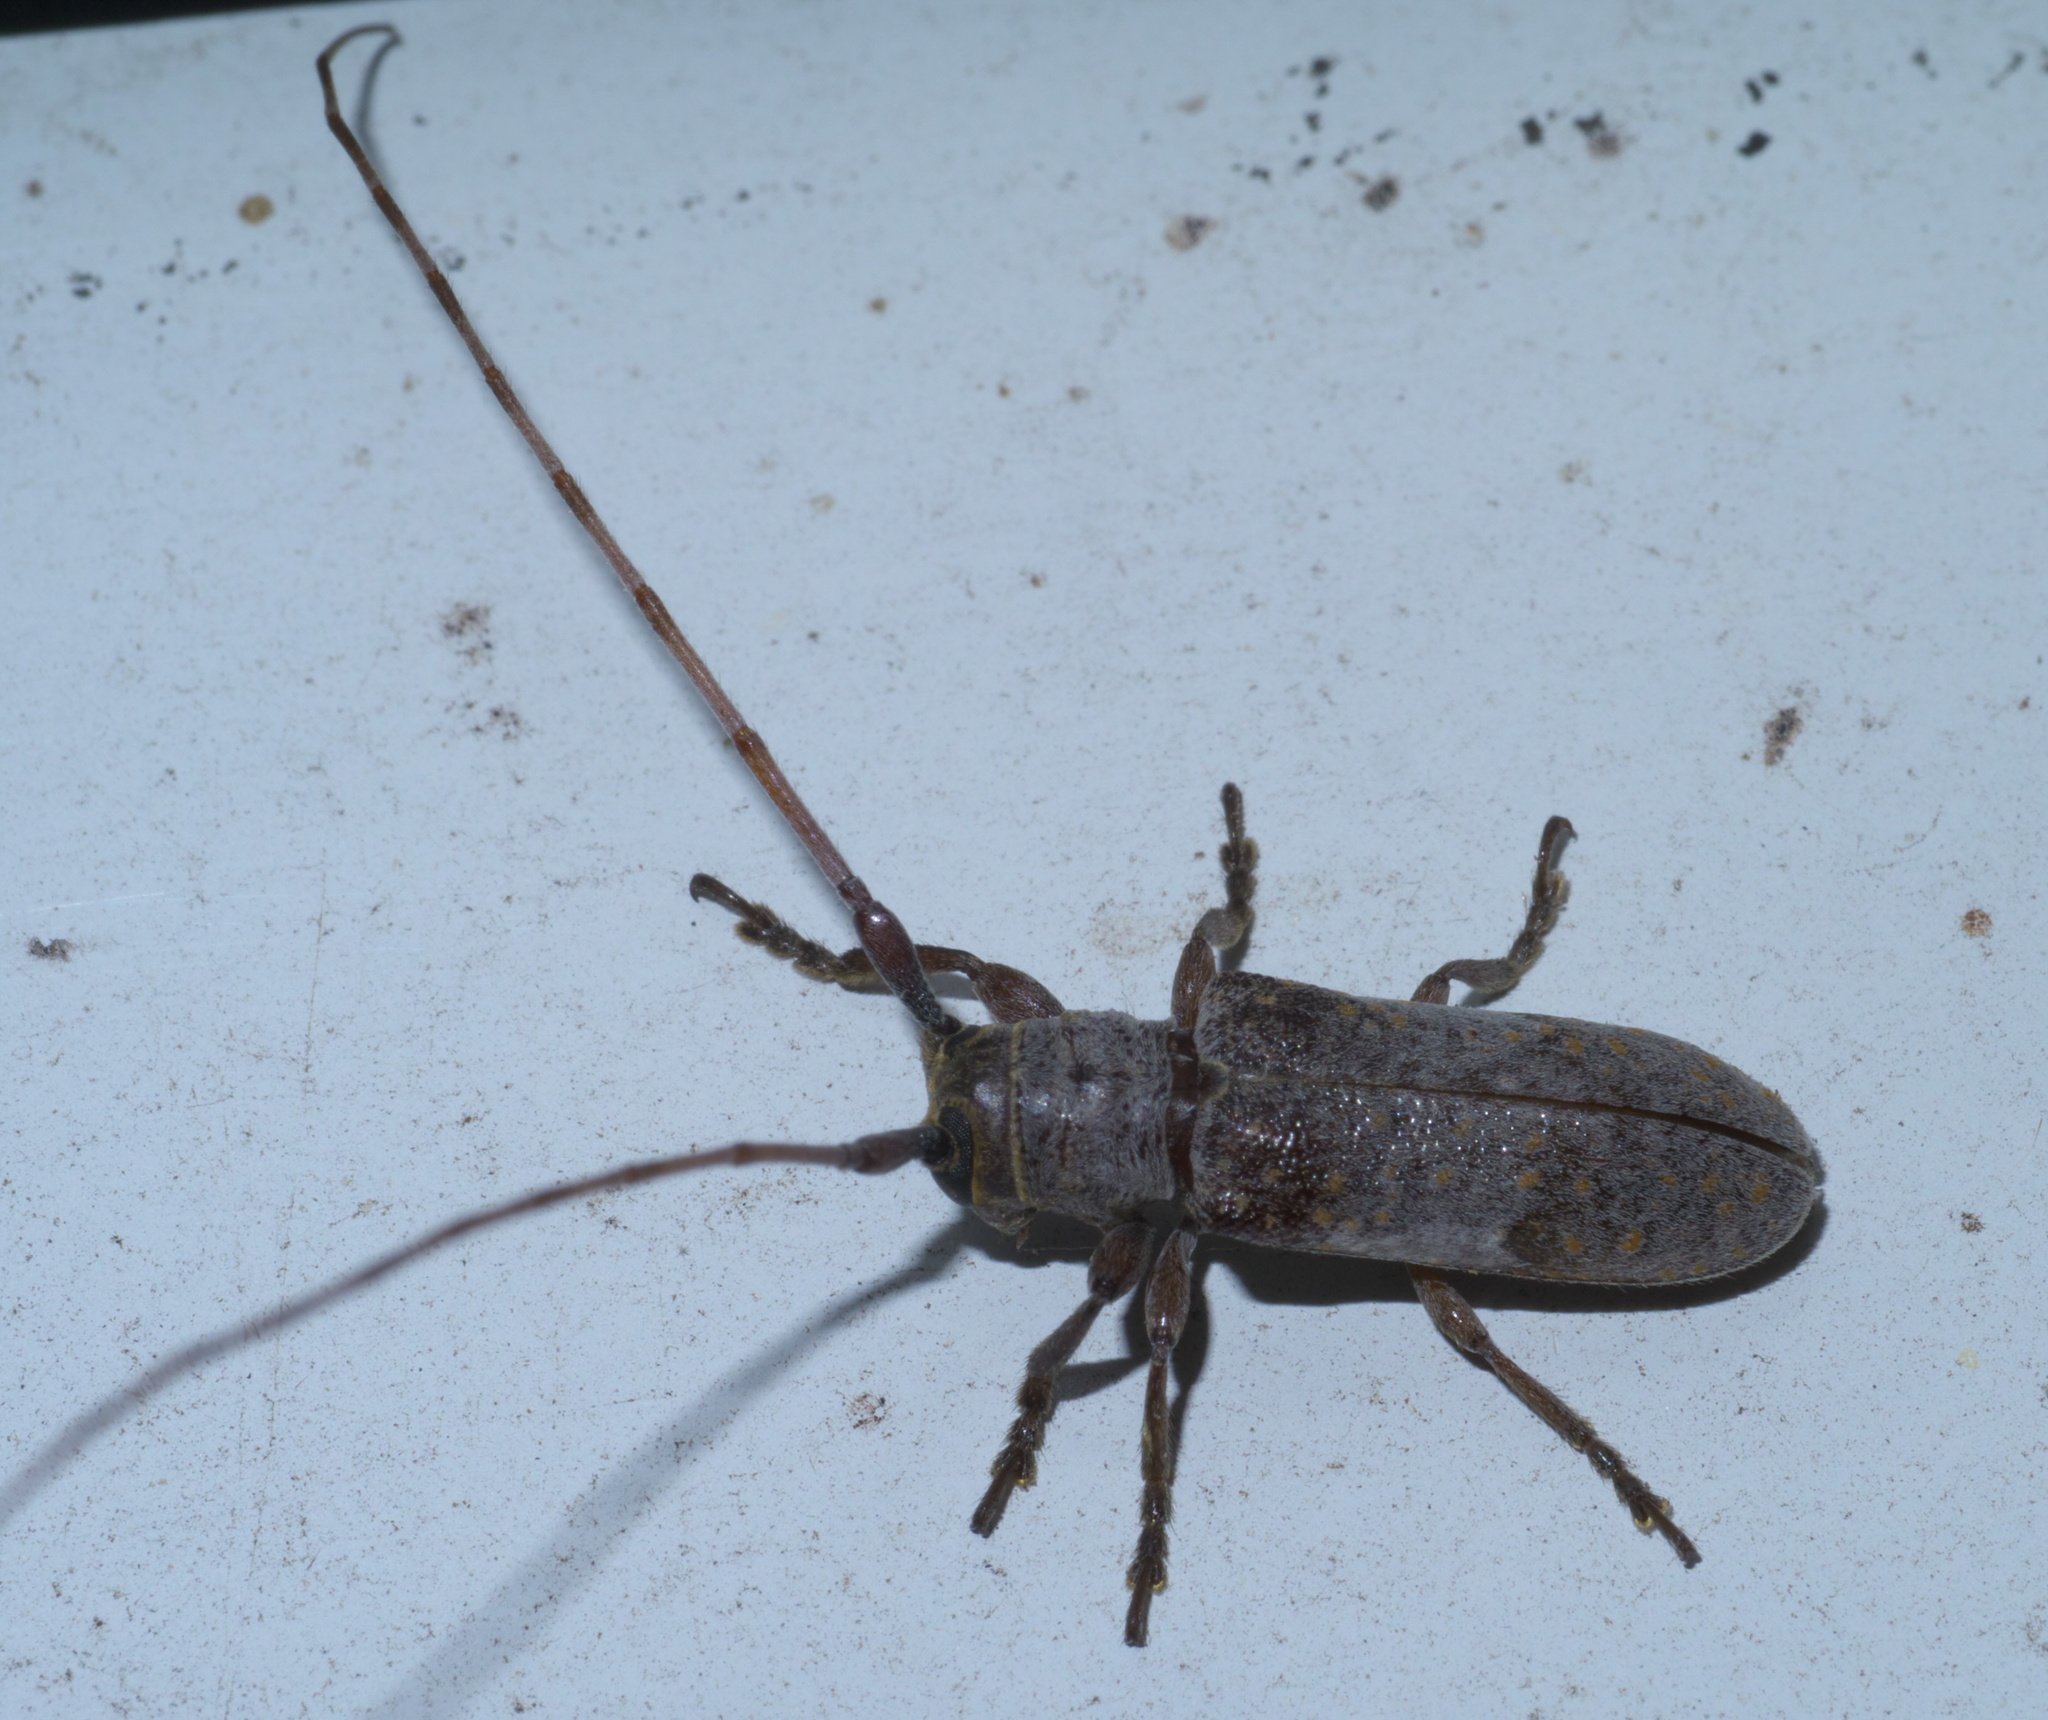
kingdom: Animalia
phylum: Arthropoda
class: Insecta
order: Coleoptera
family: Cerambycidae
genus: Oncideres
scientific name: Oncideres cingulata
